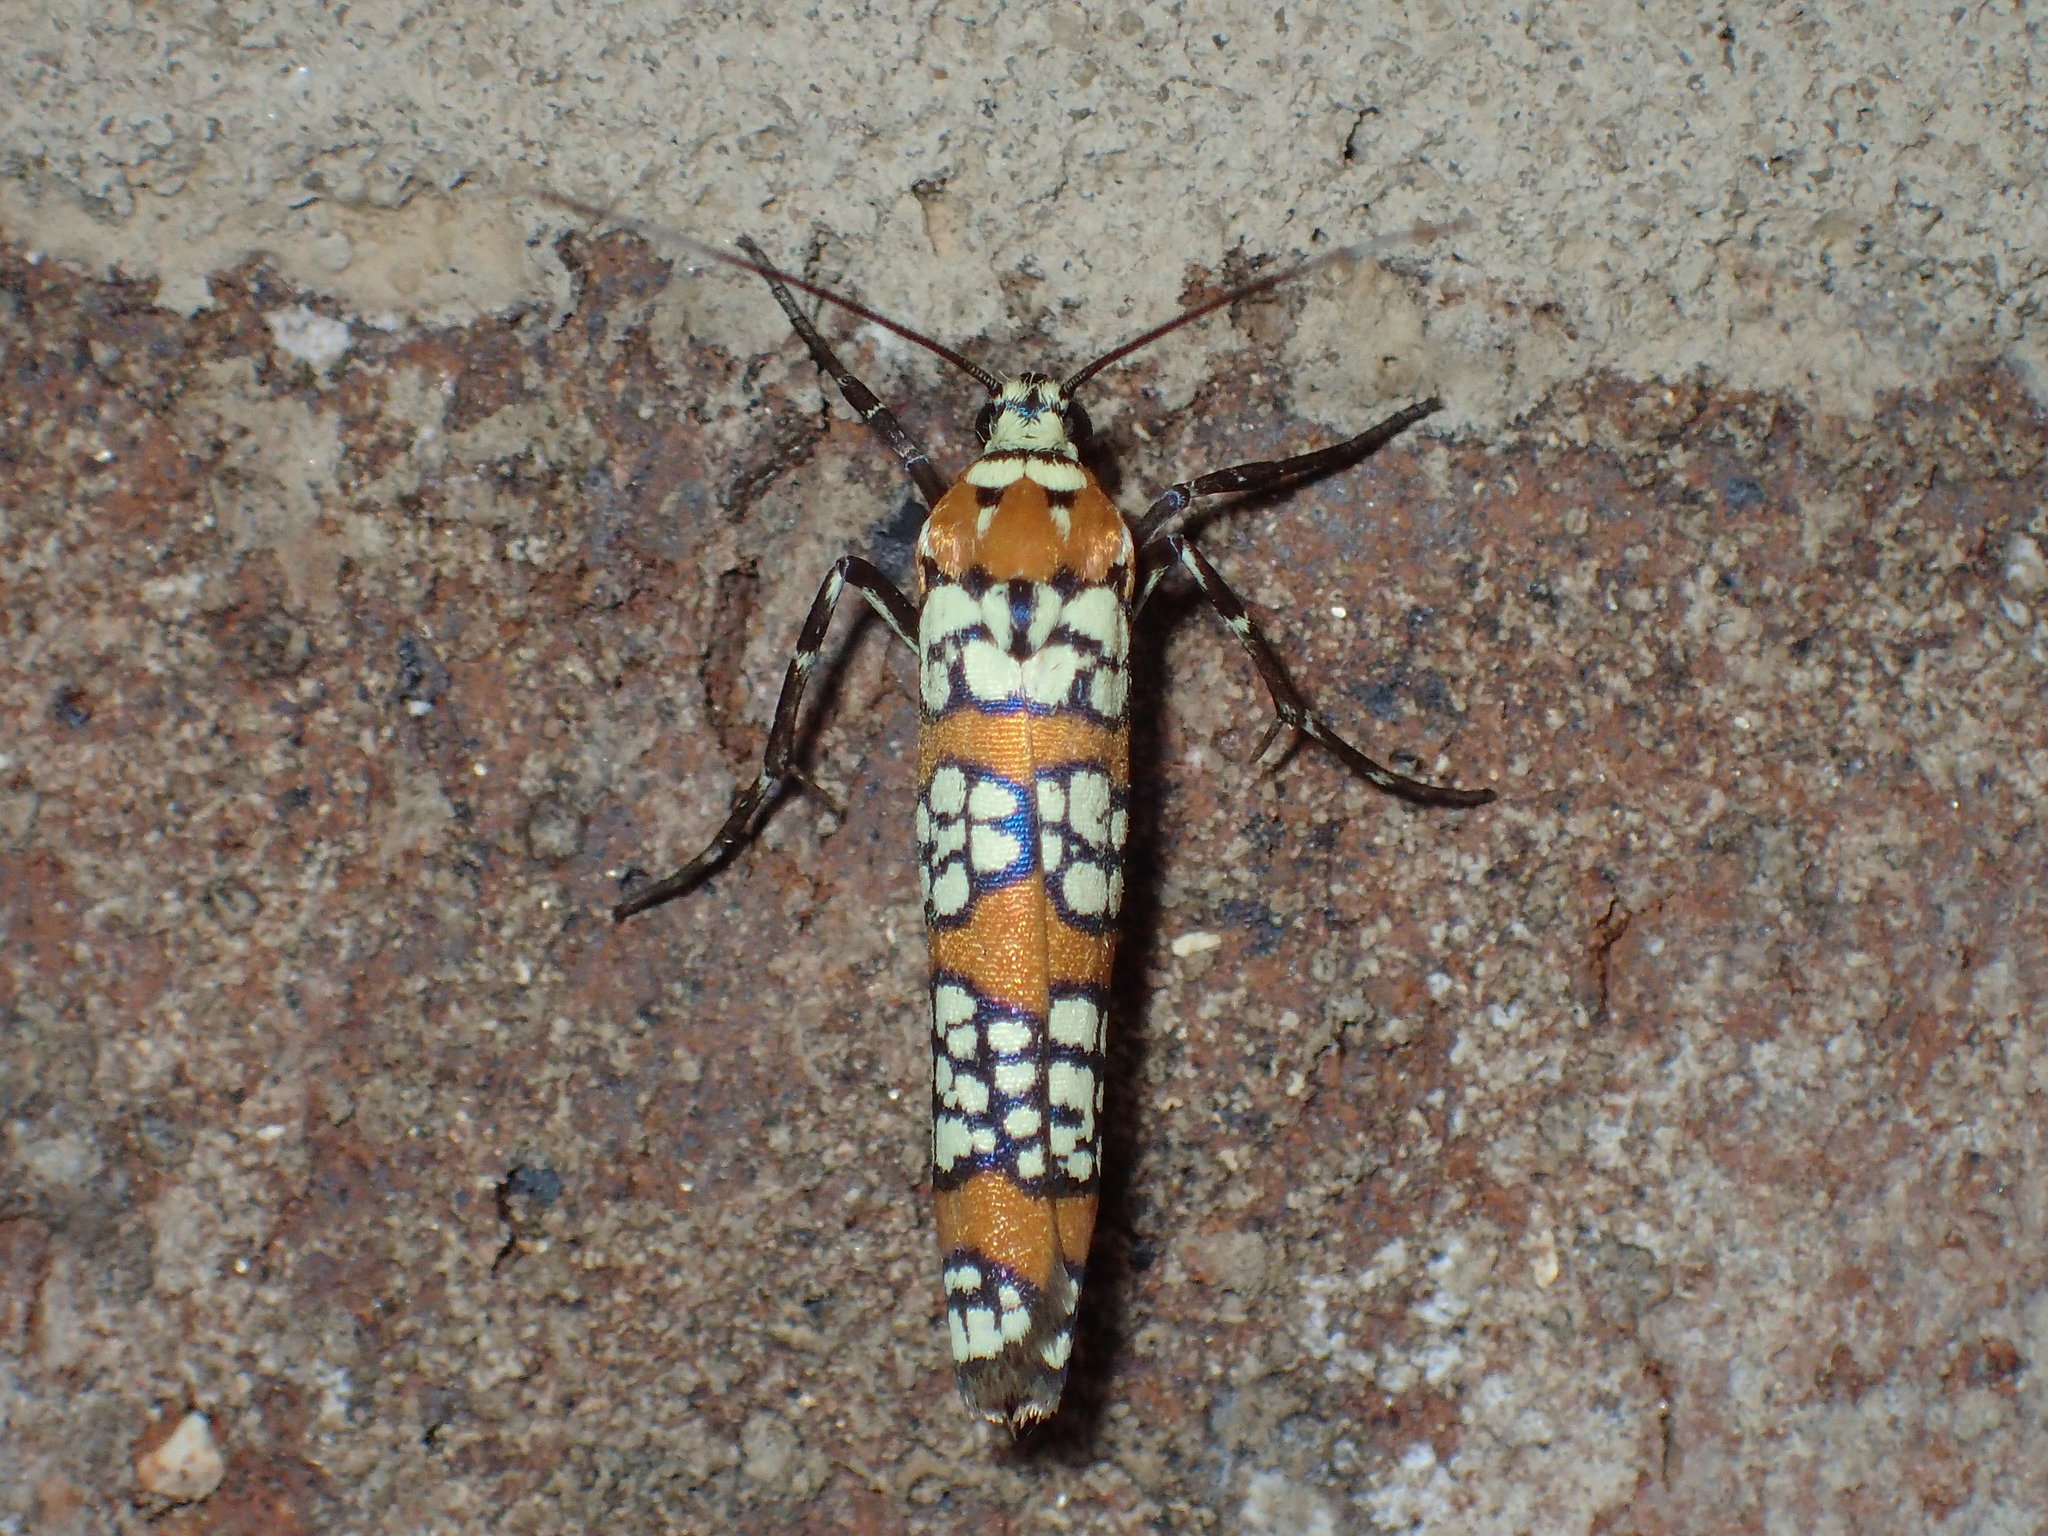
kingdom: Animalia
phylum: Arthropoda
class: Insecta
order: Lepidoptera
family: Attevidae
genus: Atteva
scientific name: Atteva punctella
